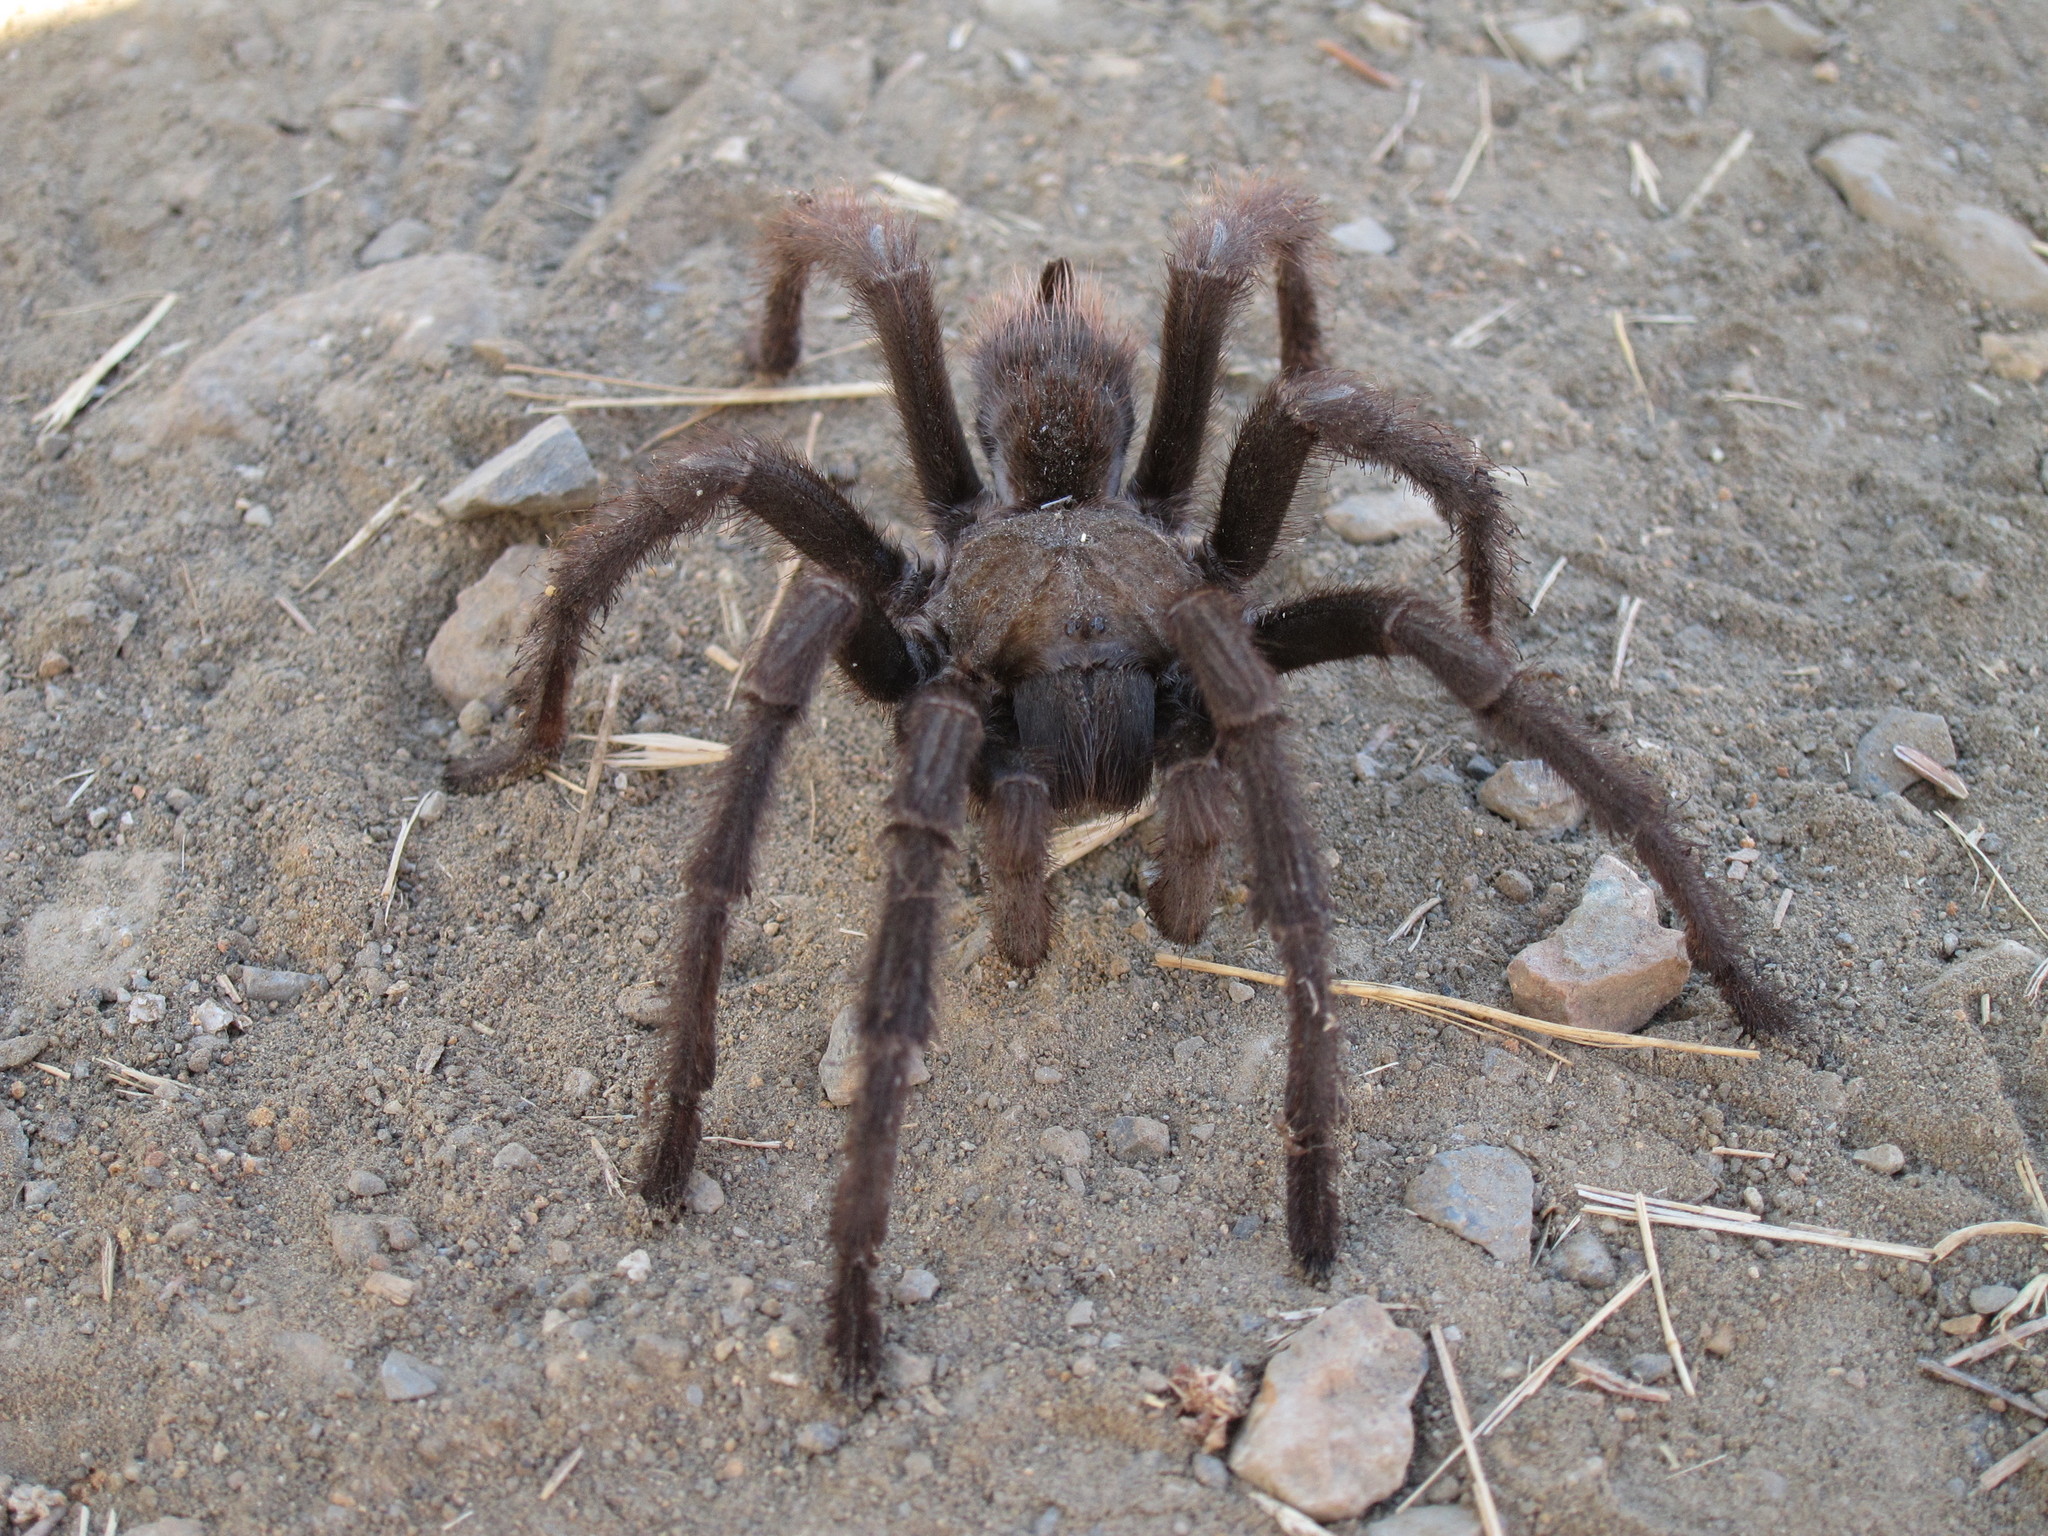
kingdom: Animalia
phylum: Arthropoda
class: Arachnida
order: Araneae
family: Theraphosidae
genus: Aphonopelma
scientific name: Aphonopelma iodius
